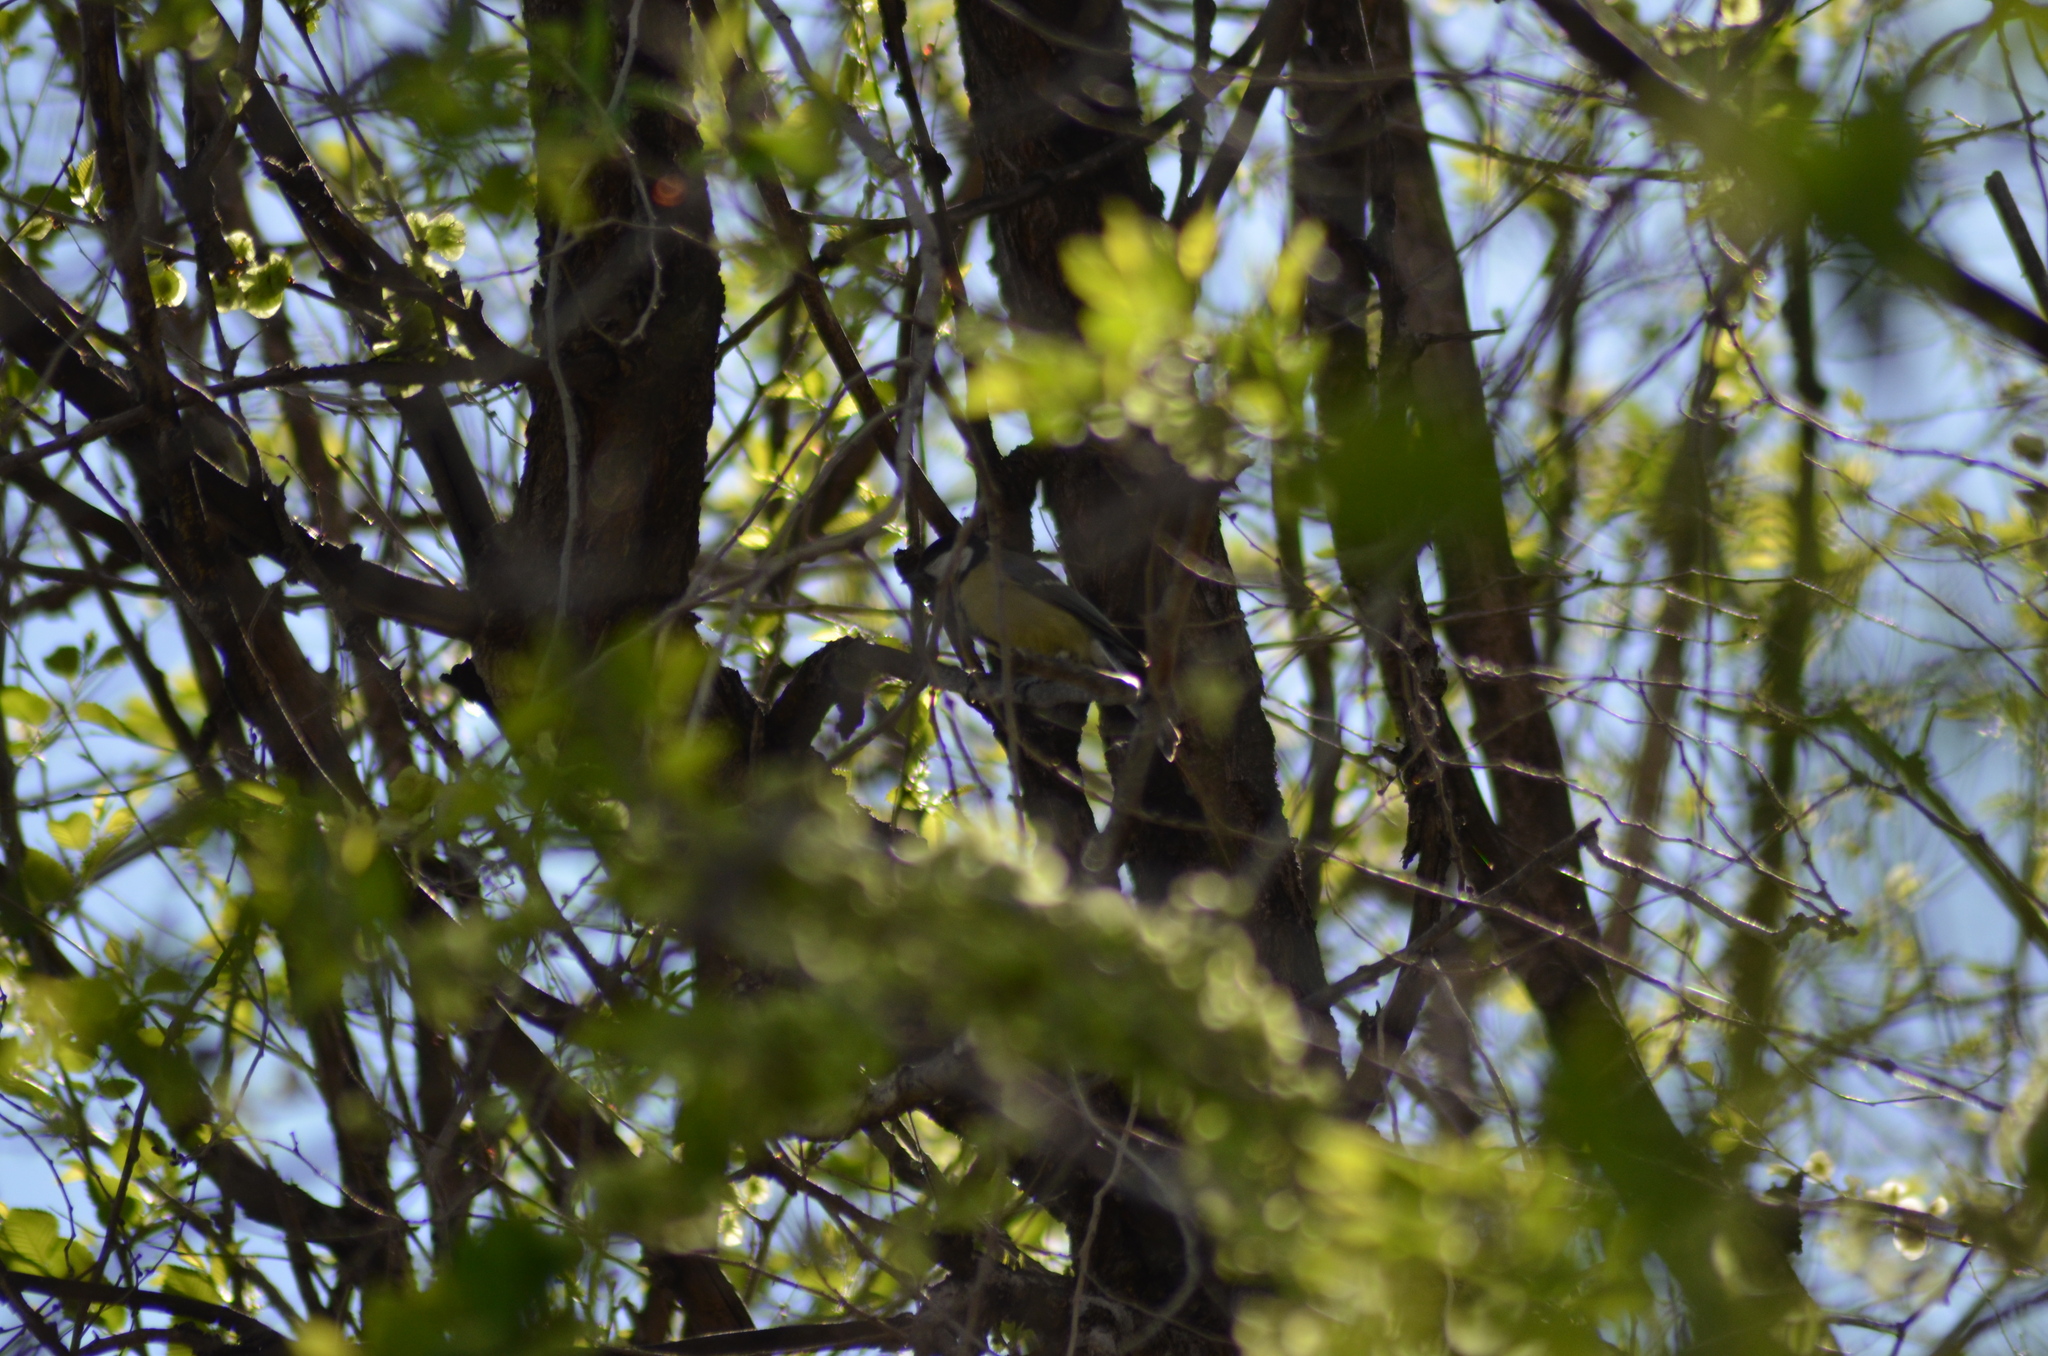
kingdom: Animalia
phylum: Chordata
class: Aves
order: Passeriformes
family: Paridae
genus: Parus
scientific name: Parus major
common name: Great tit
